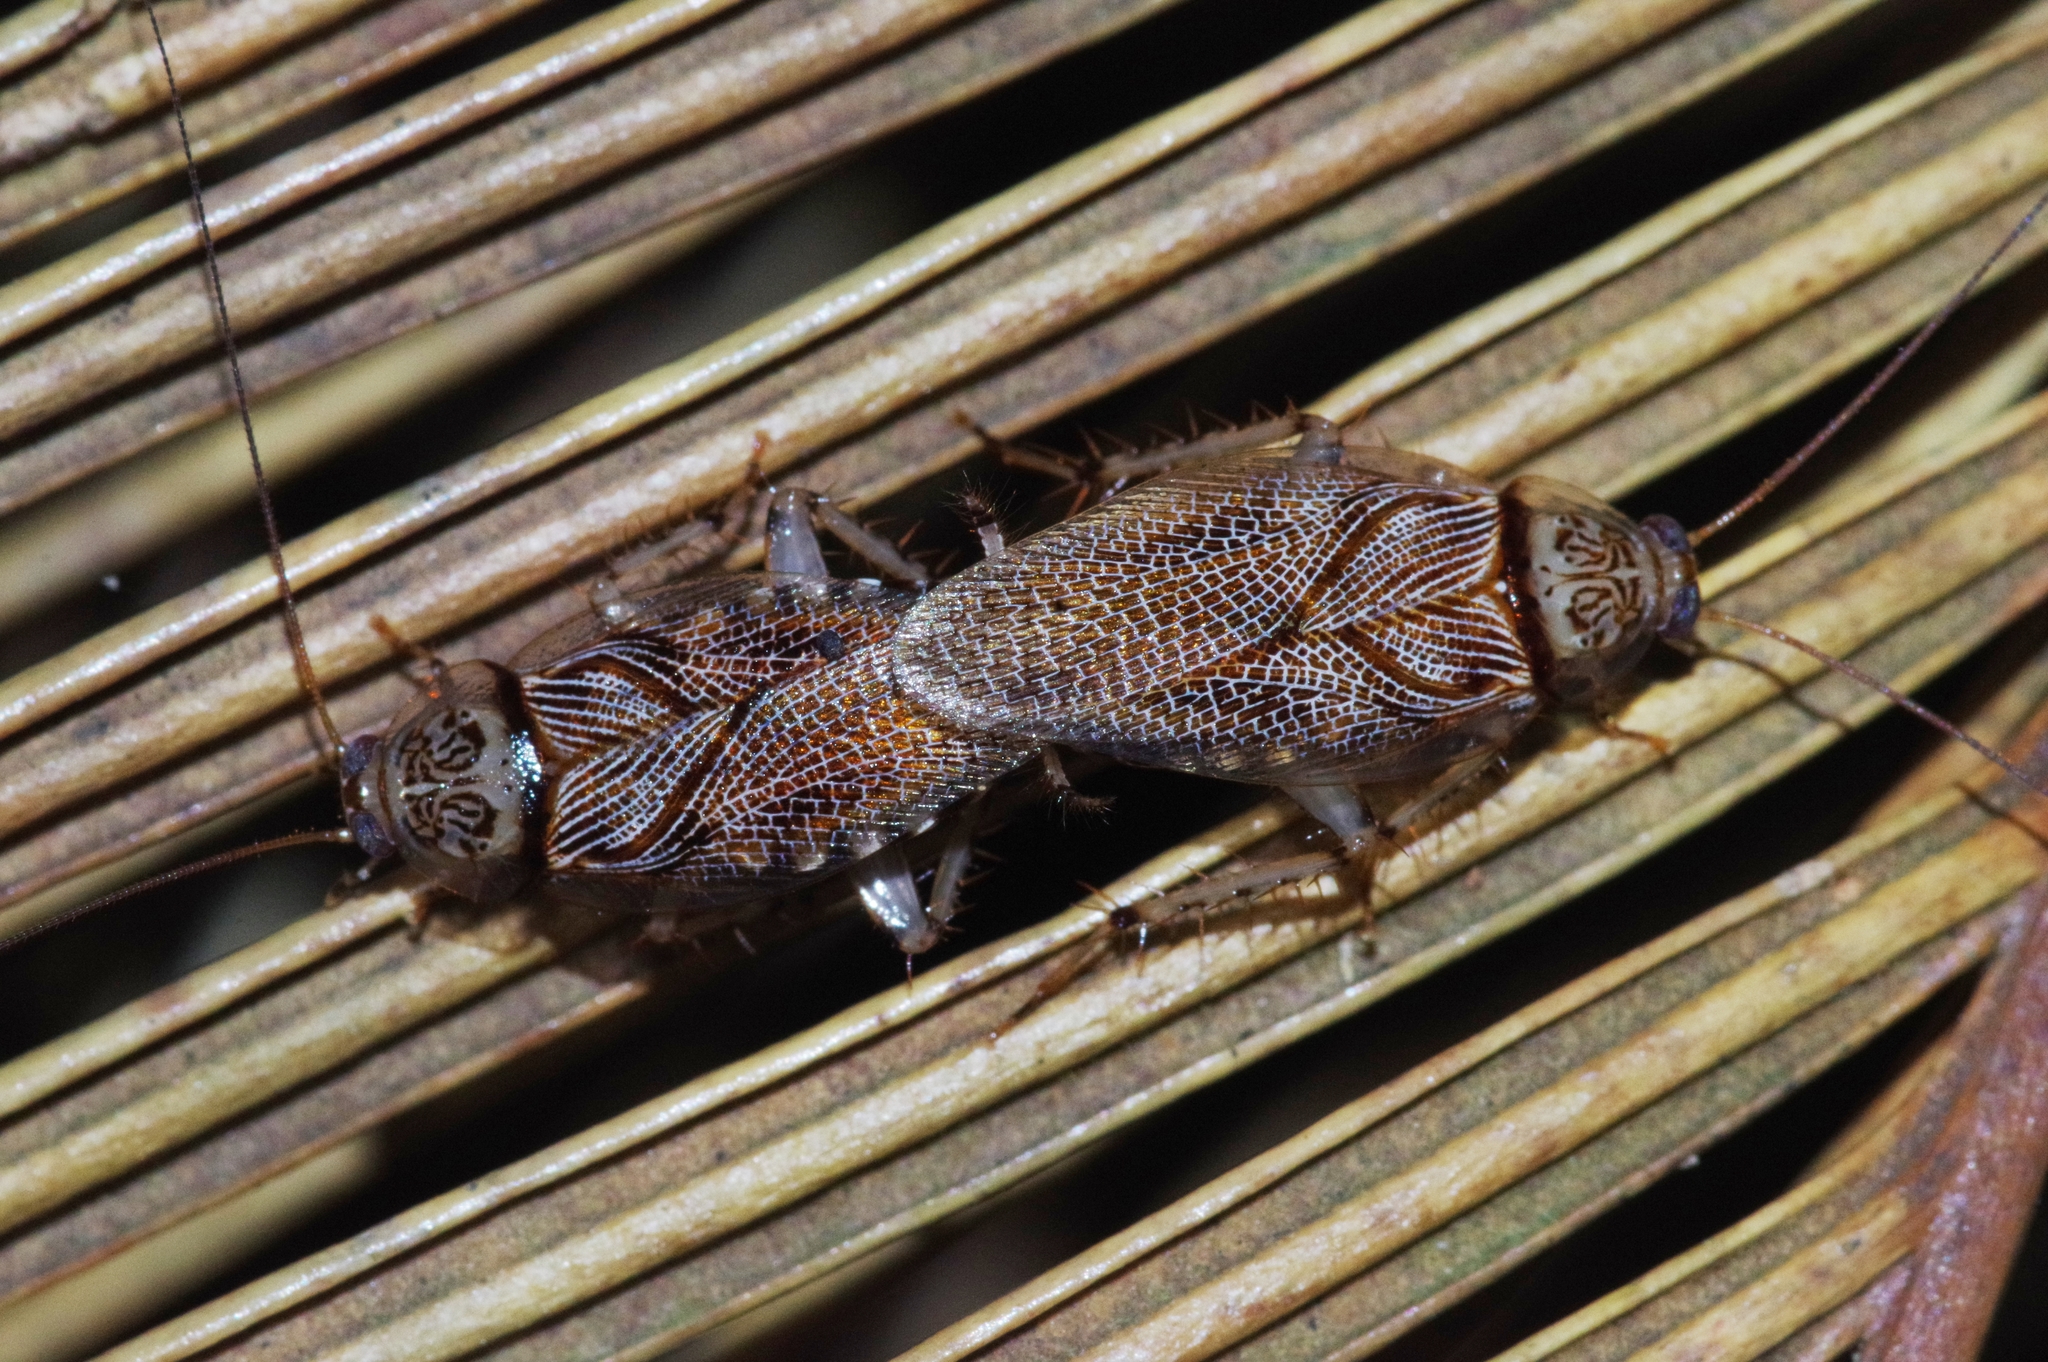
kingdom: Animalia
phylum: Arthropoda
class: Insecta
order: Blattodea
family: Ectobiidae
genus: Balta
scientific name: Balta notulata
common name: Cockroach
